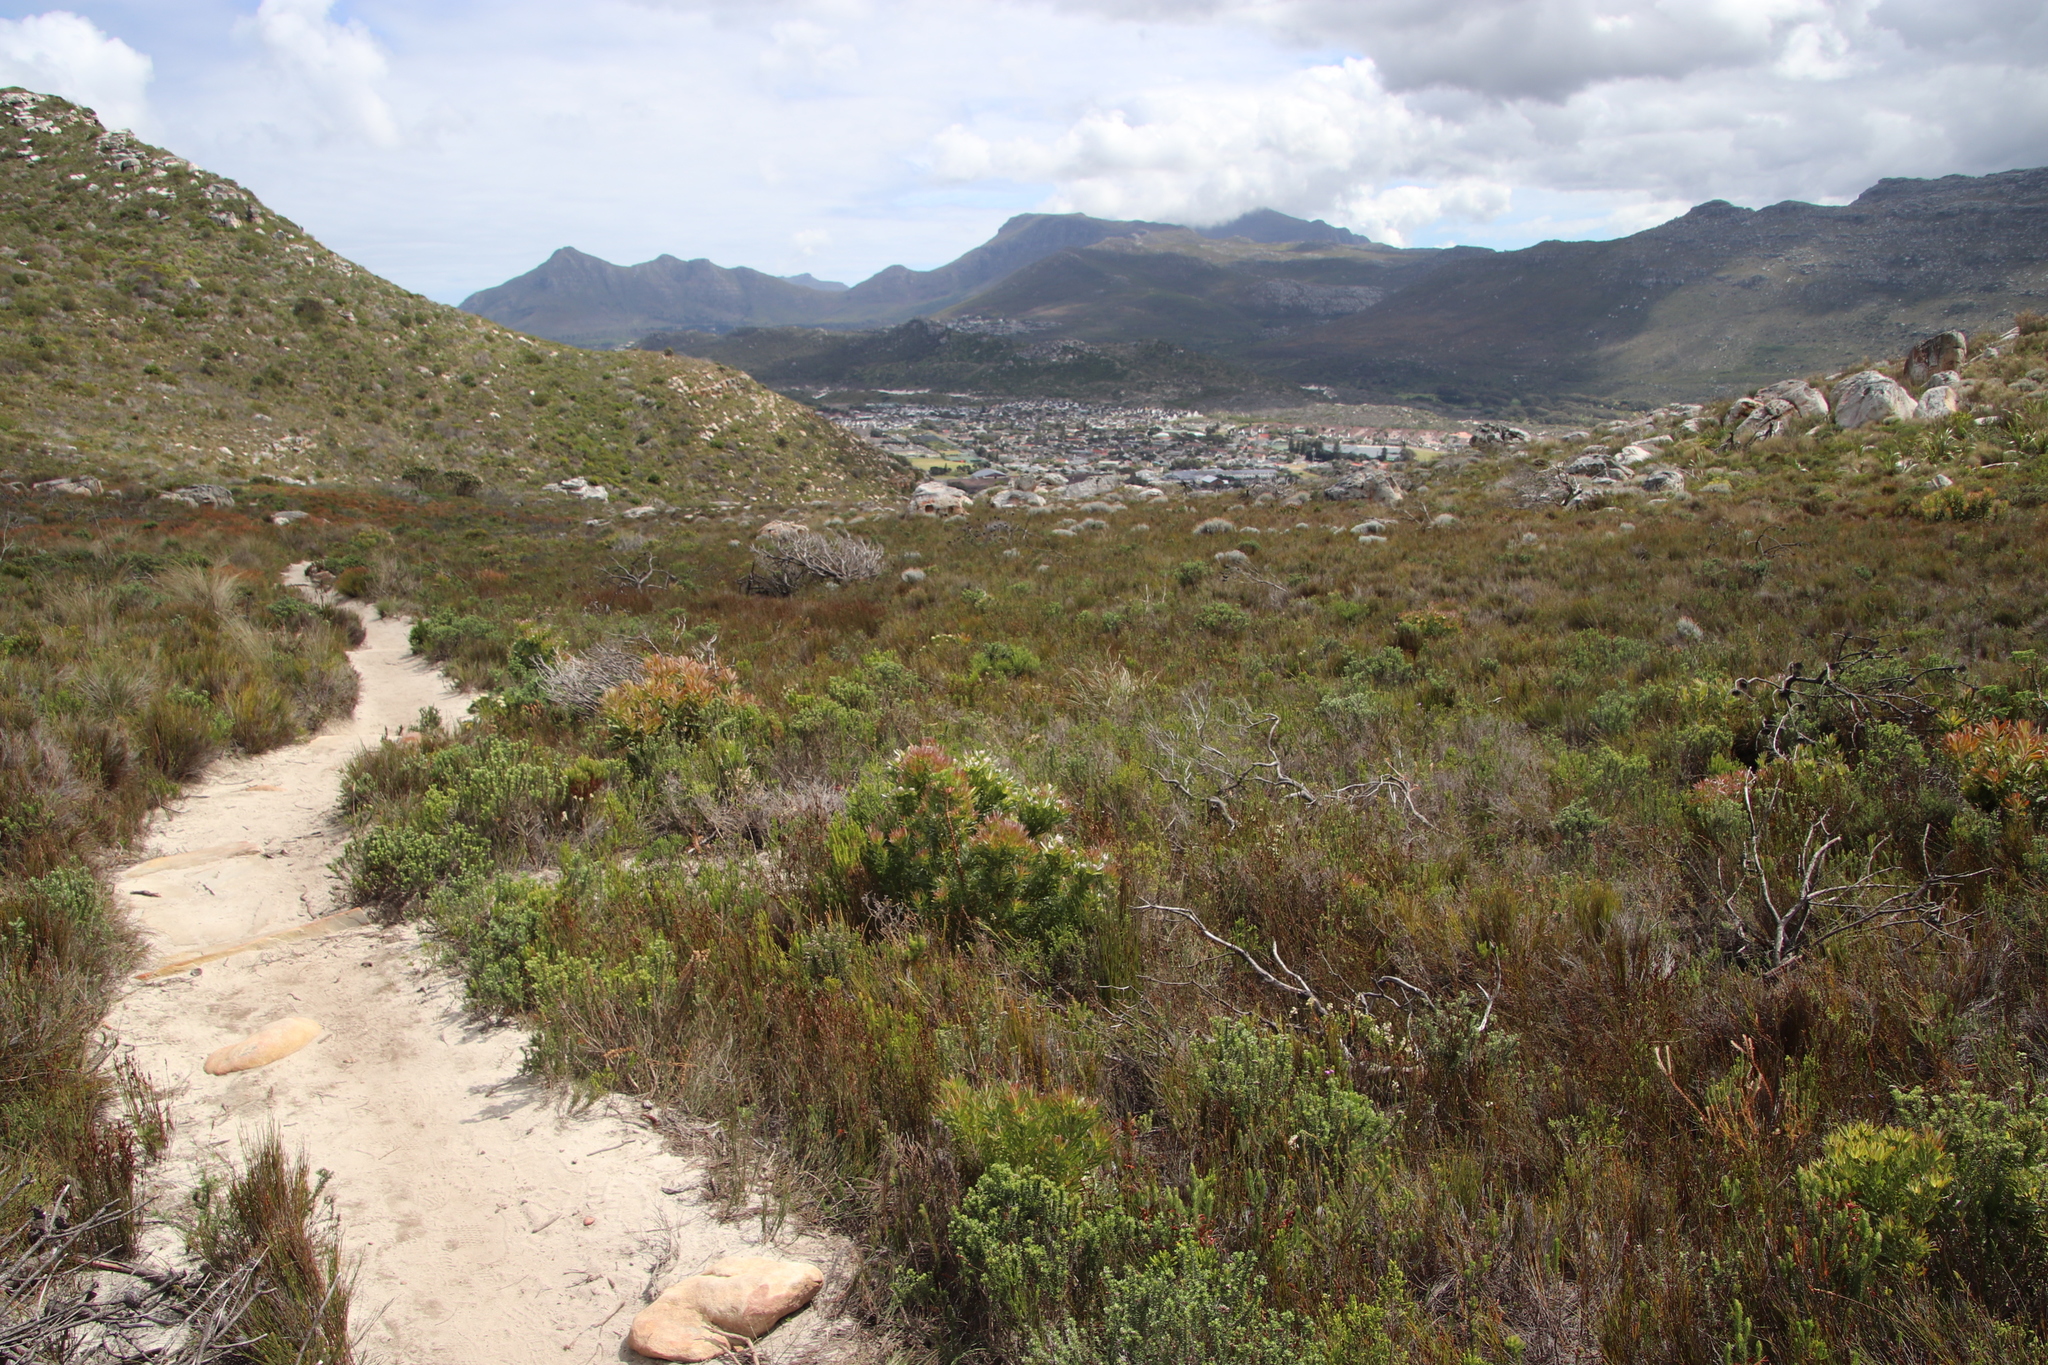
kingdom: Plantae
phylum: Tracheophyta
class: Magnoliopsida
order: Proteales
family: Proteaceae
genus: Diastella
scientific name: Diastella divaricata
